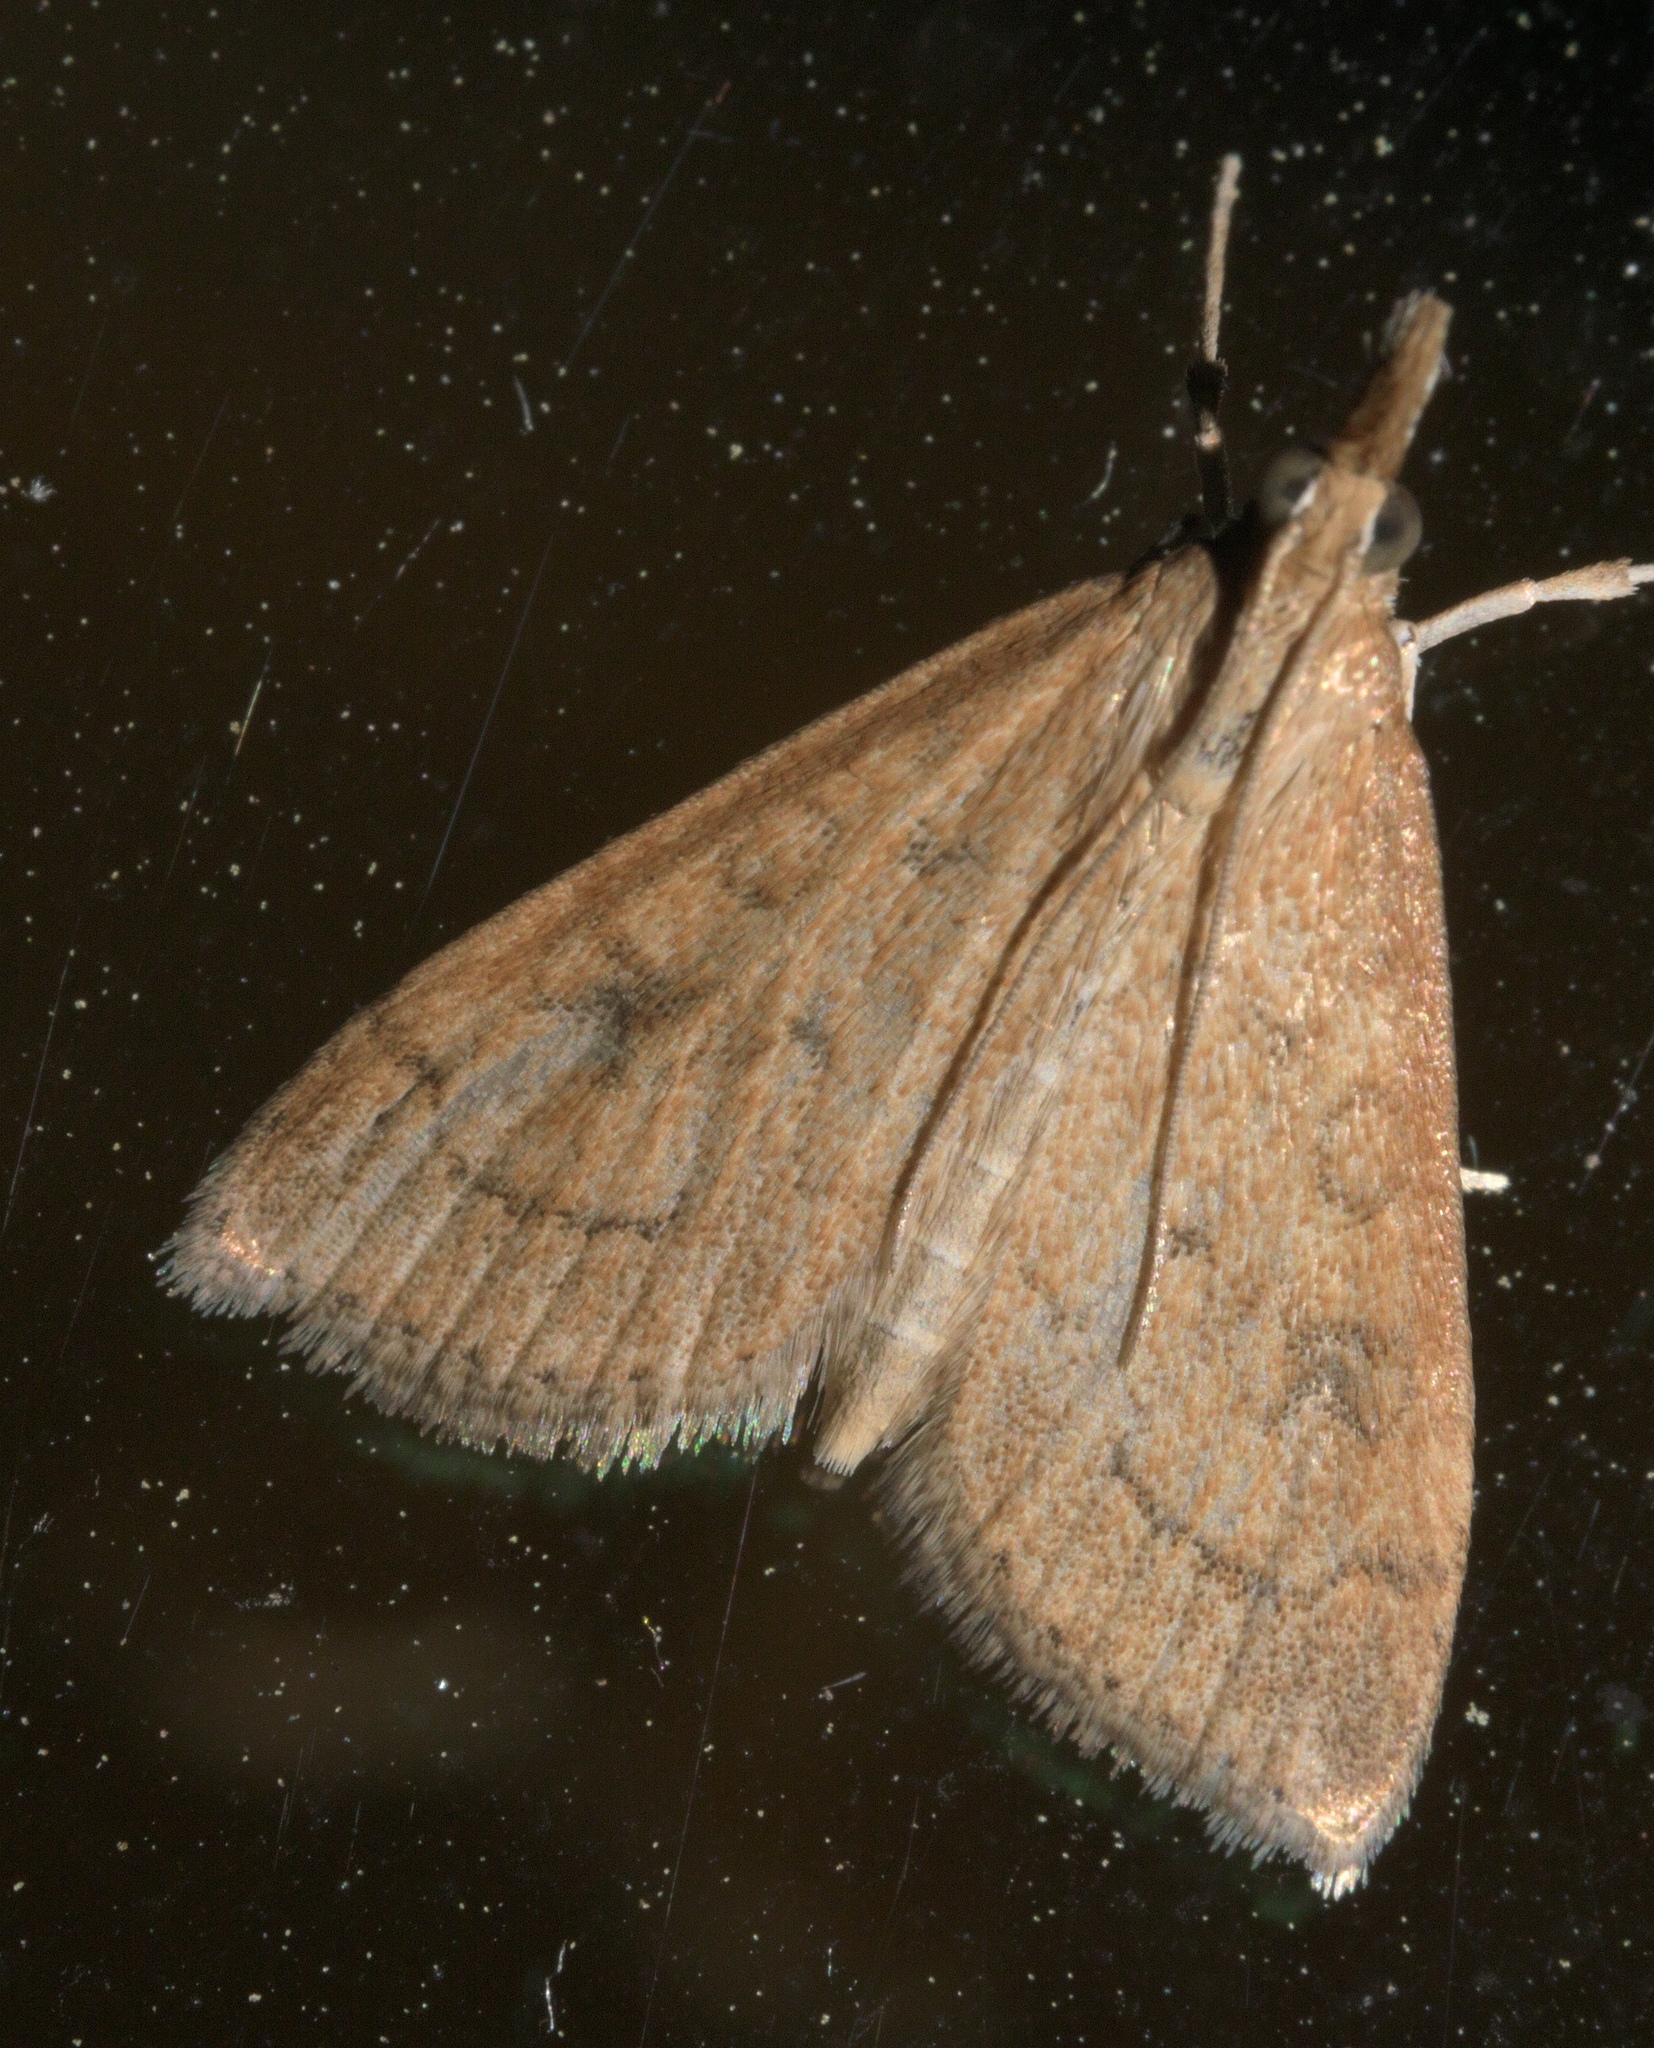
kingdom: Animalia
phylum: Arthropoda
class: Insecta
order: Lepidoptera
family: Crambidae
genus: Udea
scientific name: Udea rubigalis
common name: Celery leaftier moth
